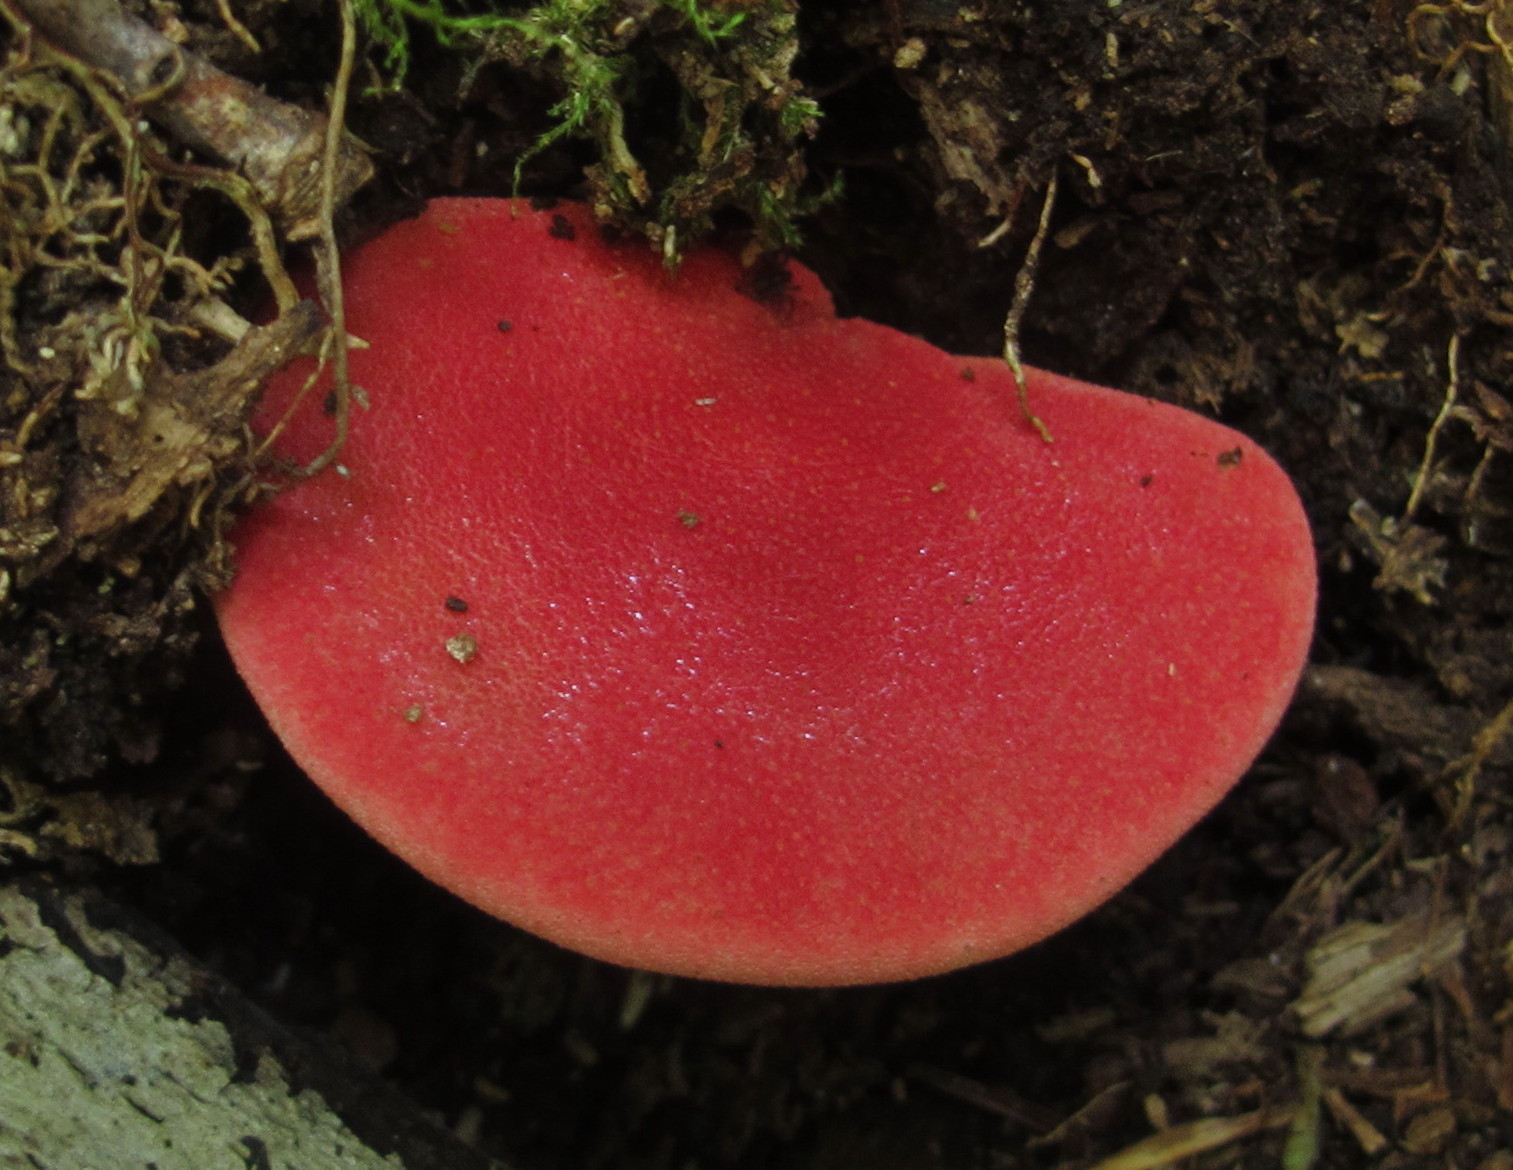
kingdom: Fungi
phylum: Basidiomycota
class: Agaricomycetes
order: Agaricales
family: Fistulinaceae
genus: Fistulina
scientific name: Fistulina hepatica
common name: Beef-steak fungus
